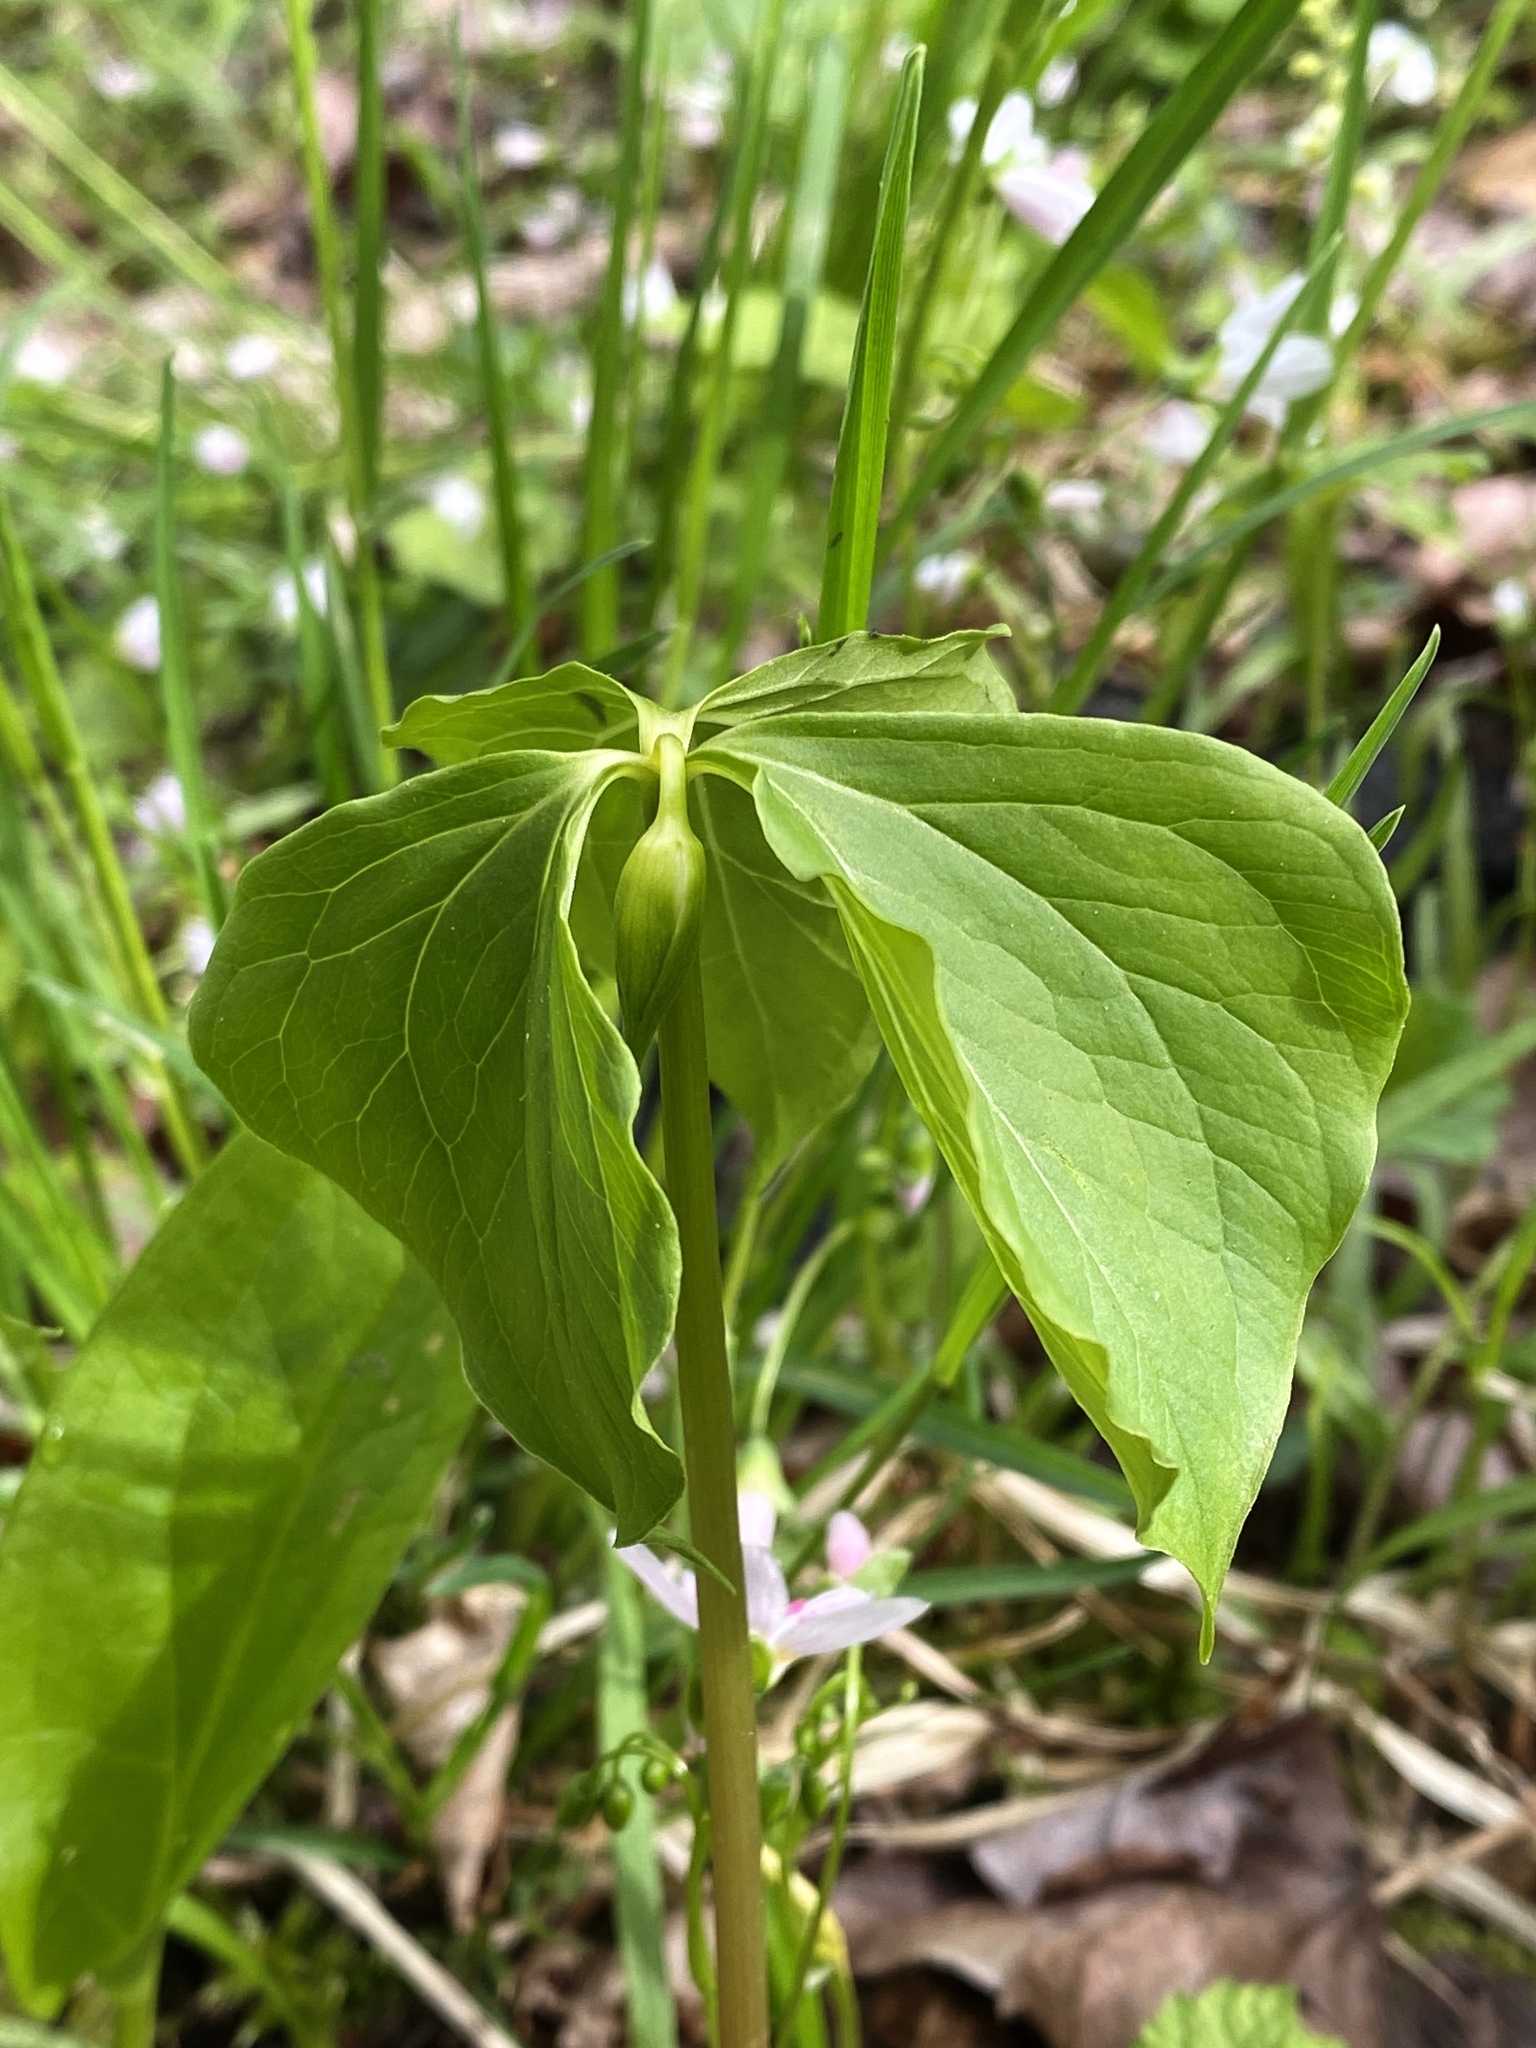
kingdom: Plantae
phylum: Tracheophyta
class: Liliopsida
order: Liliales
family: Melanthiaceae
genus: Trillium
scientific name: Trillium cernuum
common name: Nodding trillium
